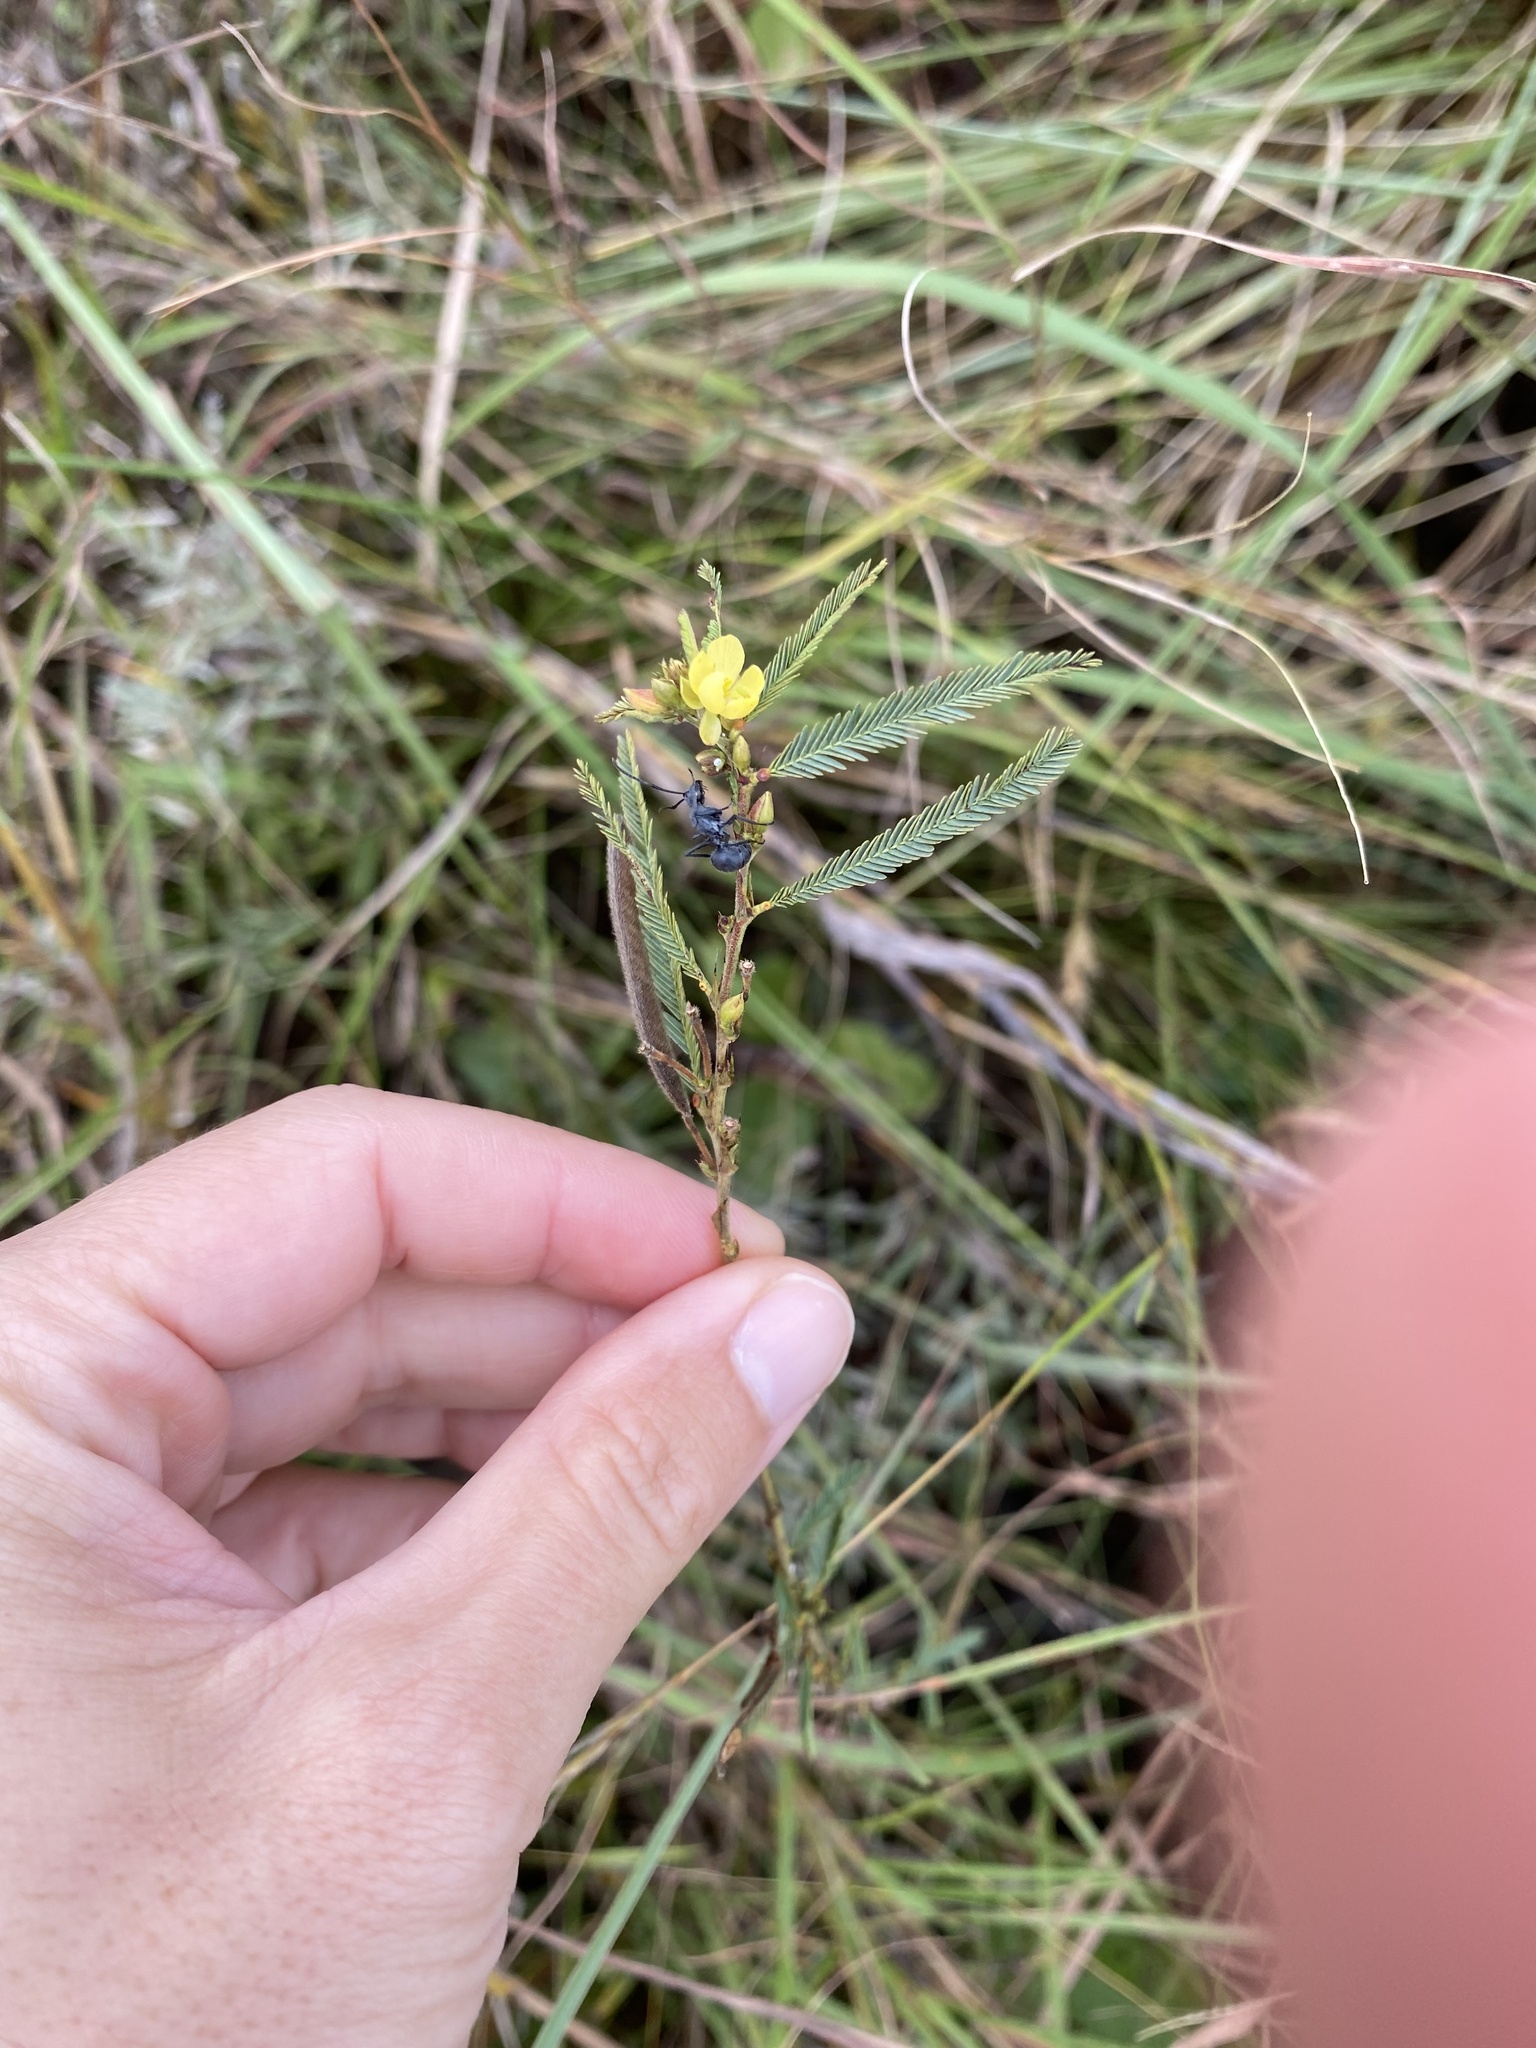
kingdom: Plantae
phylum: Tracheophyta
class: Magnoliopsida
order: Fabales
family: Fabaceae
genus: Chamaecrista
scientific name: Chamaecrista mimosoides
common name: Fish-bone cassia
